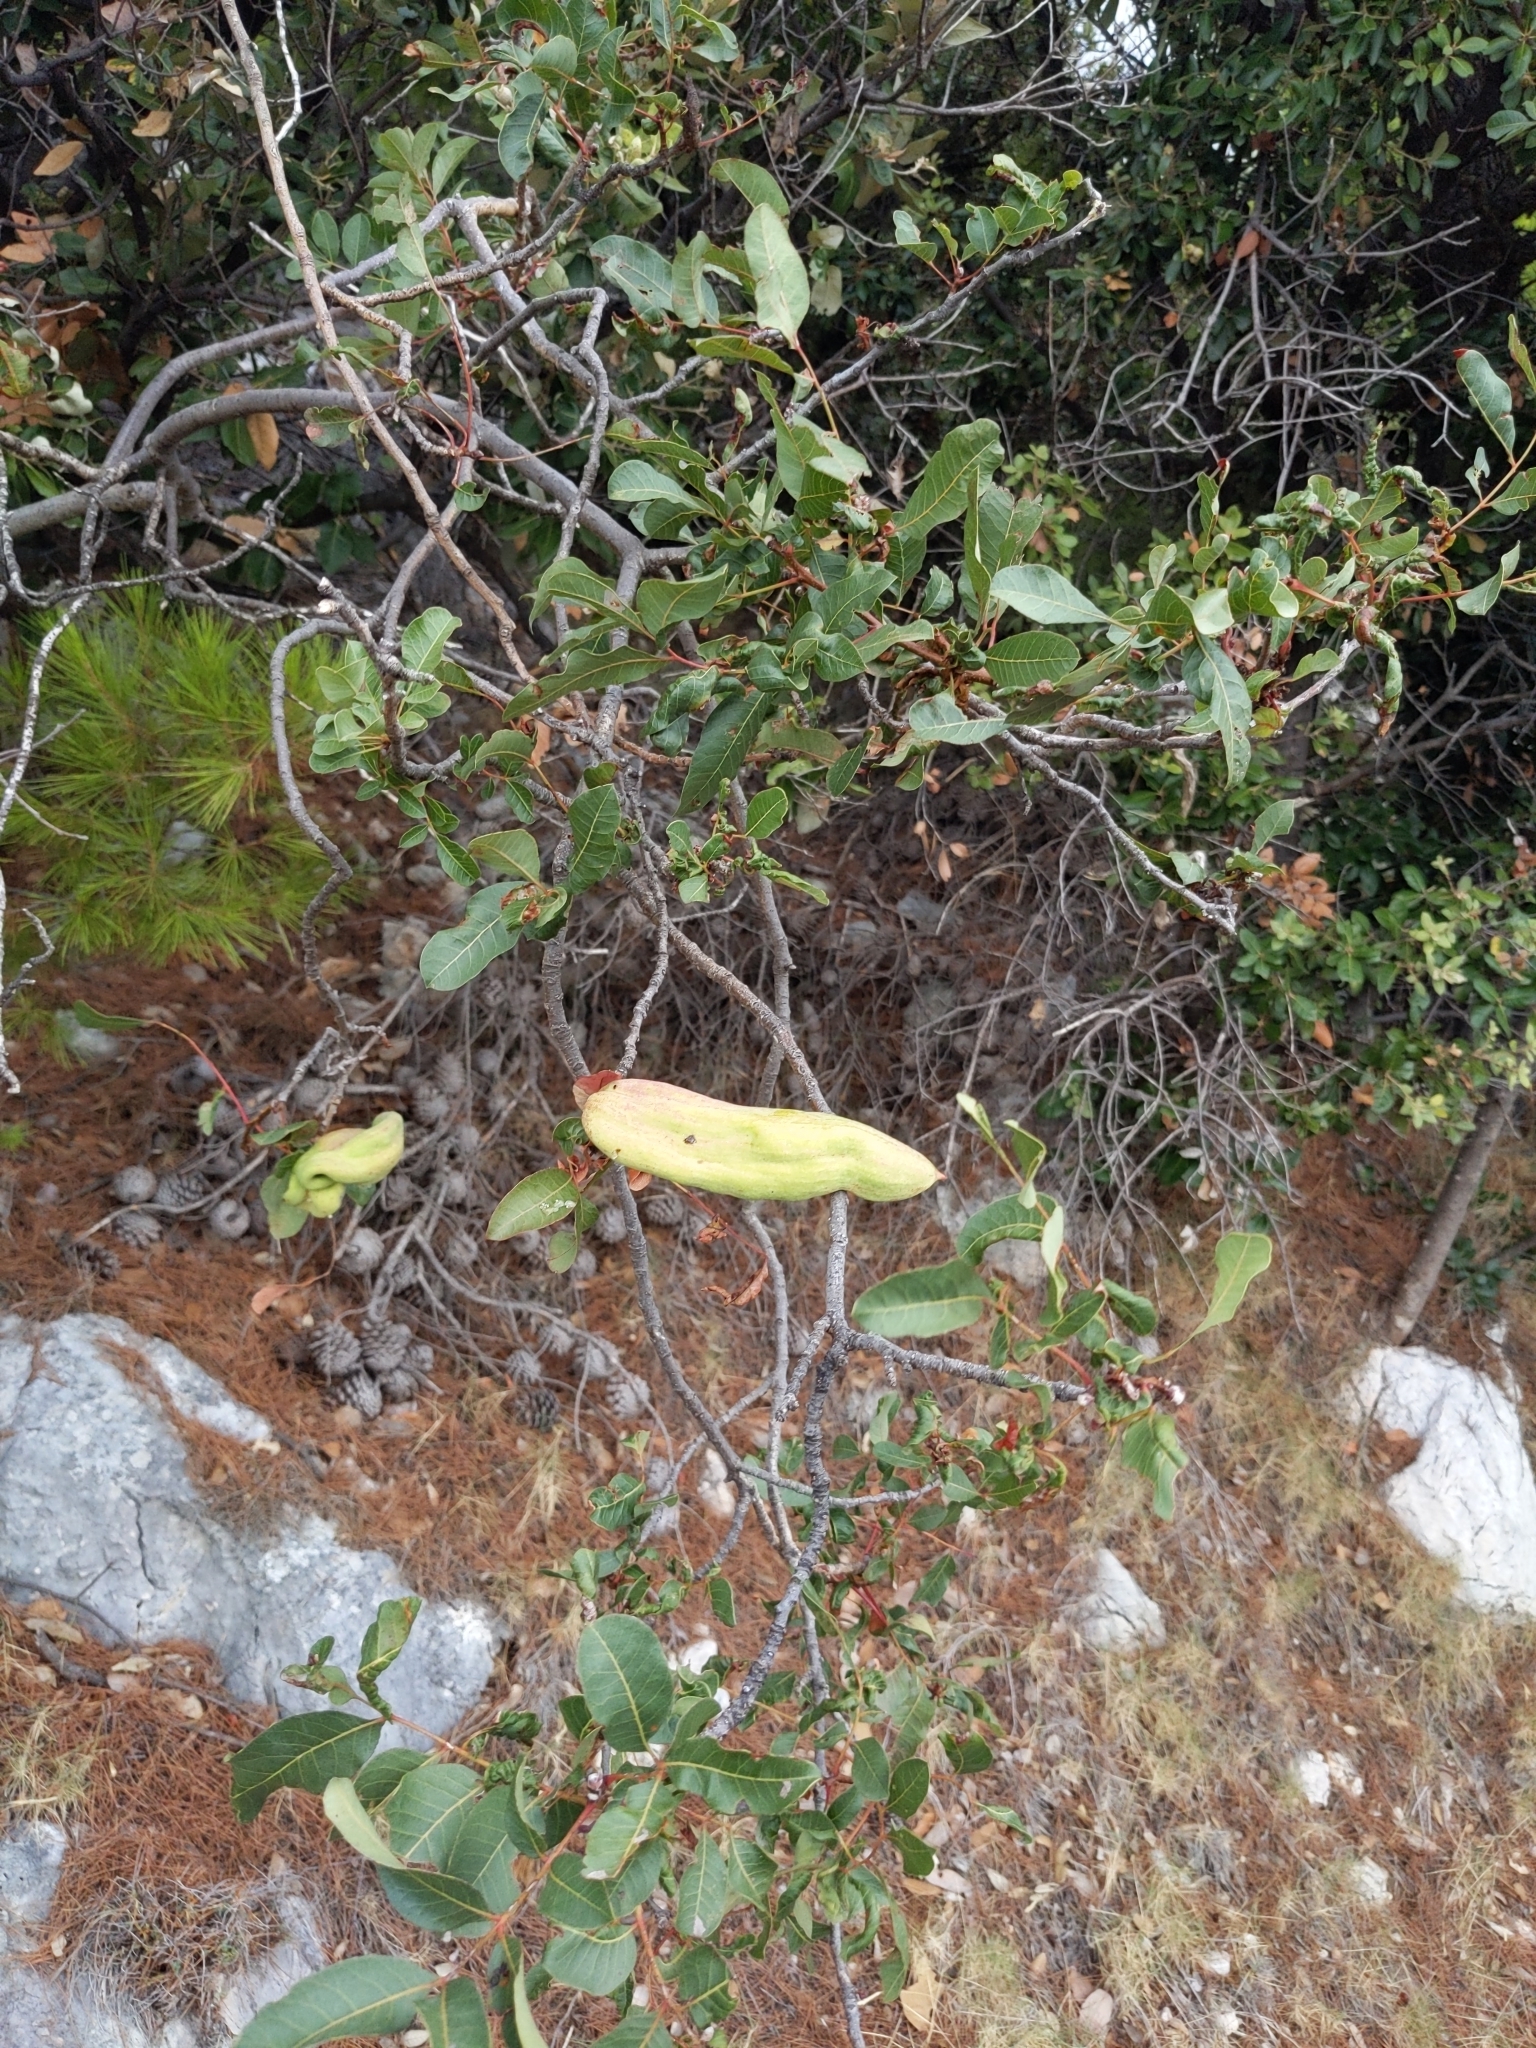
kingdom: Animalia
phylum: Arthropoda
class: Insecta
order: Hemiptera
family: Aphididae
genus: Baizongia
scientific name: Baizongia pistaciae
